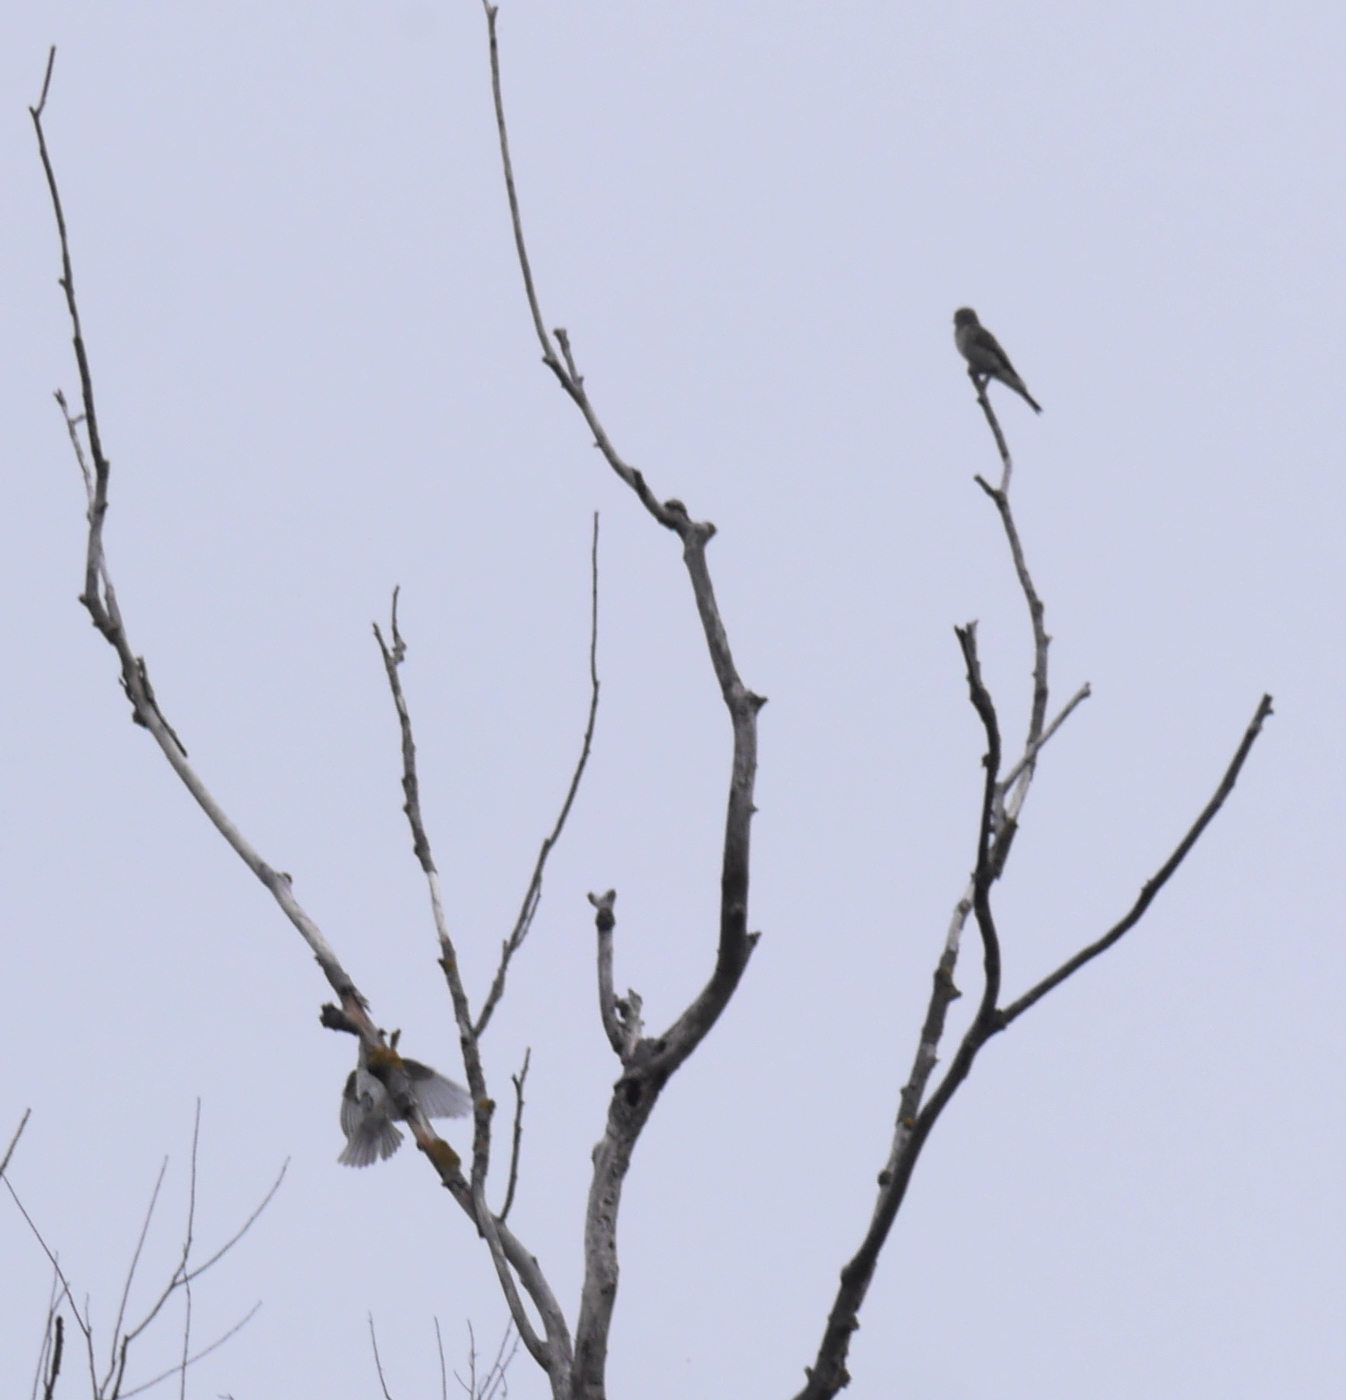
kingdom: Animalia
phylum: Chordata
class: Aves
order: Passeriformes
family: Muscicapidae
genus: Muscicapa
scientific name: Muscicapa striata
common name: Spotted flycatcher
